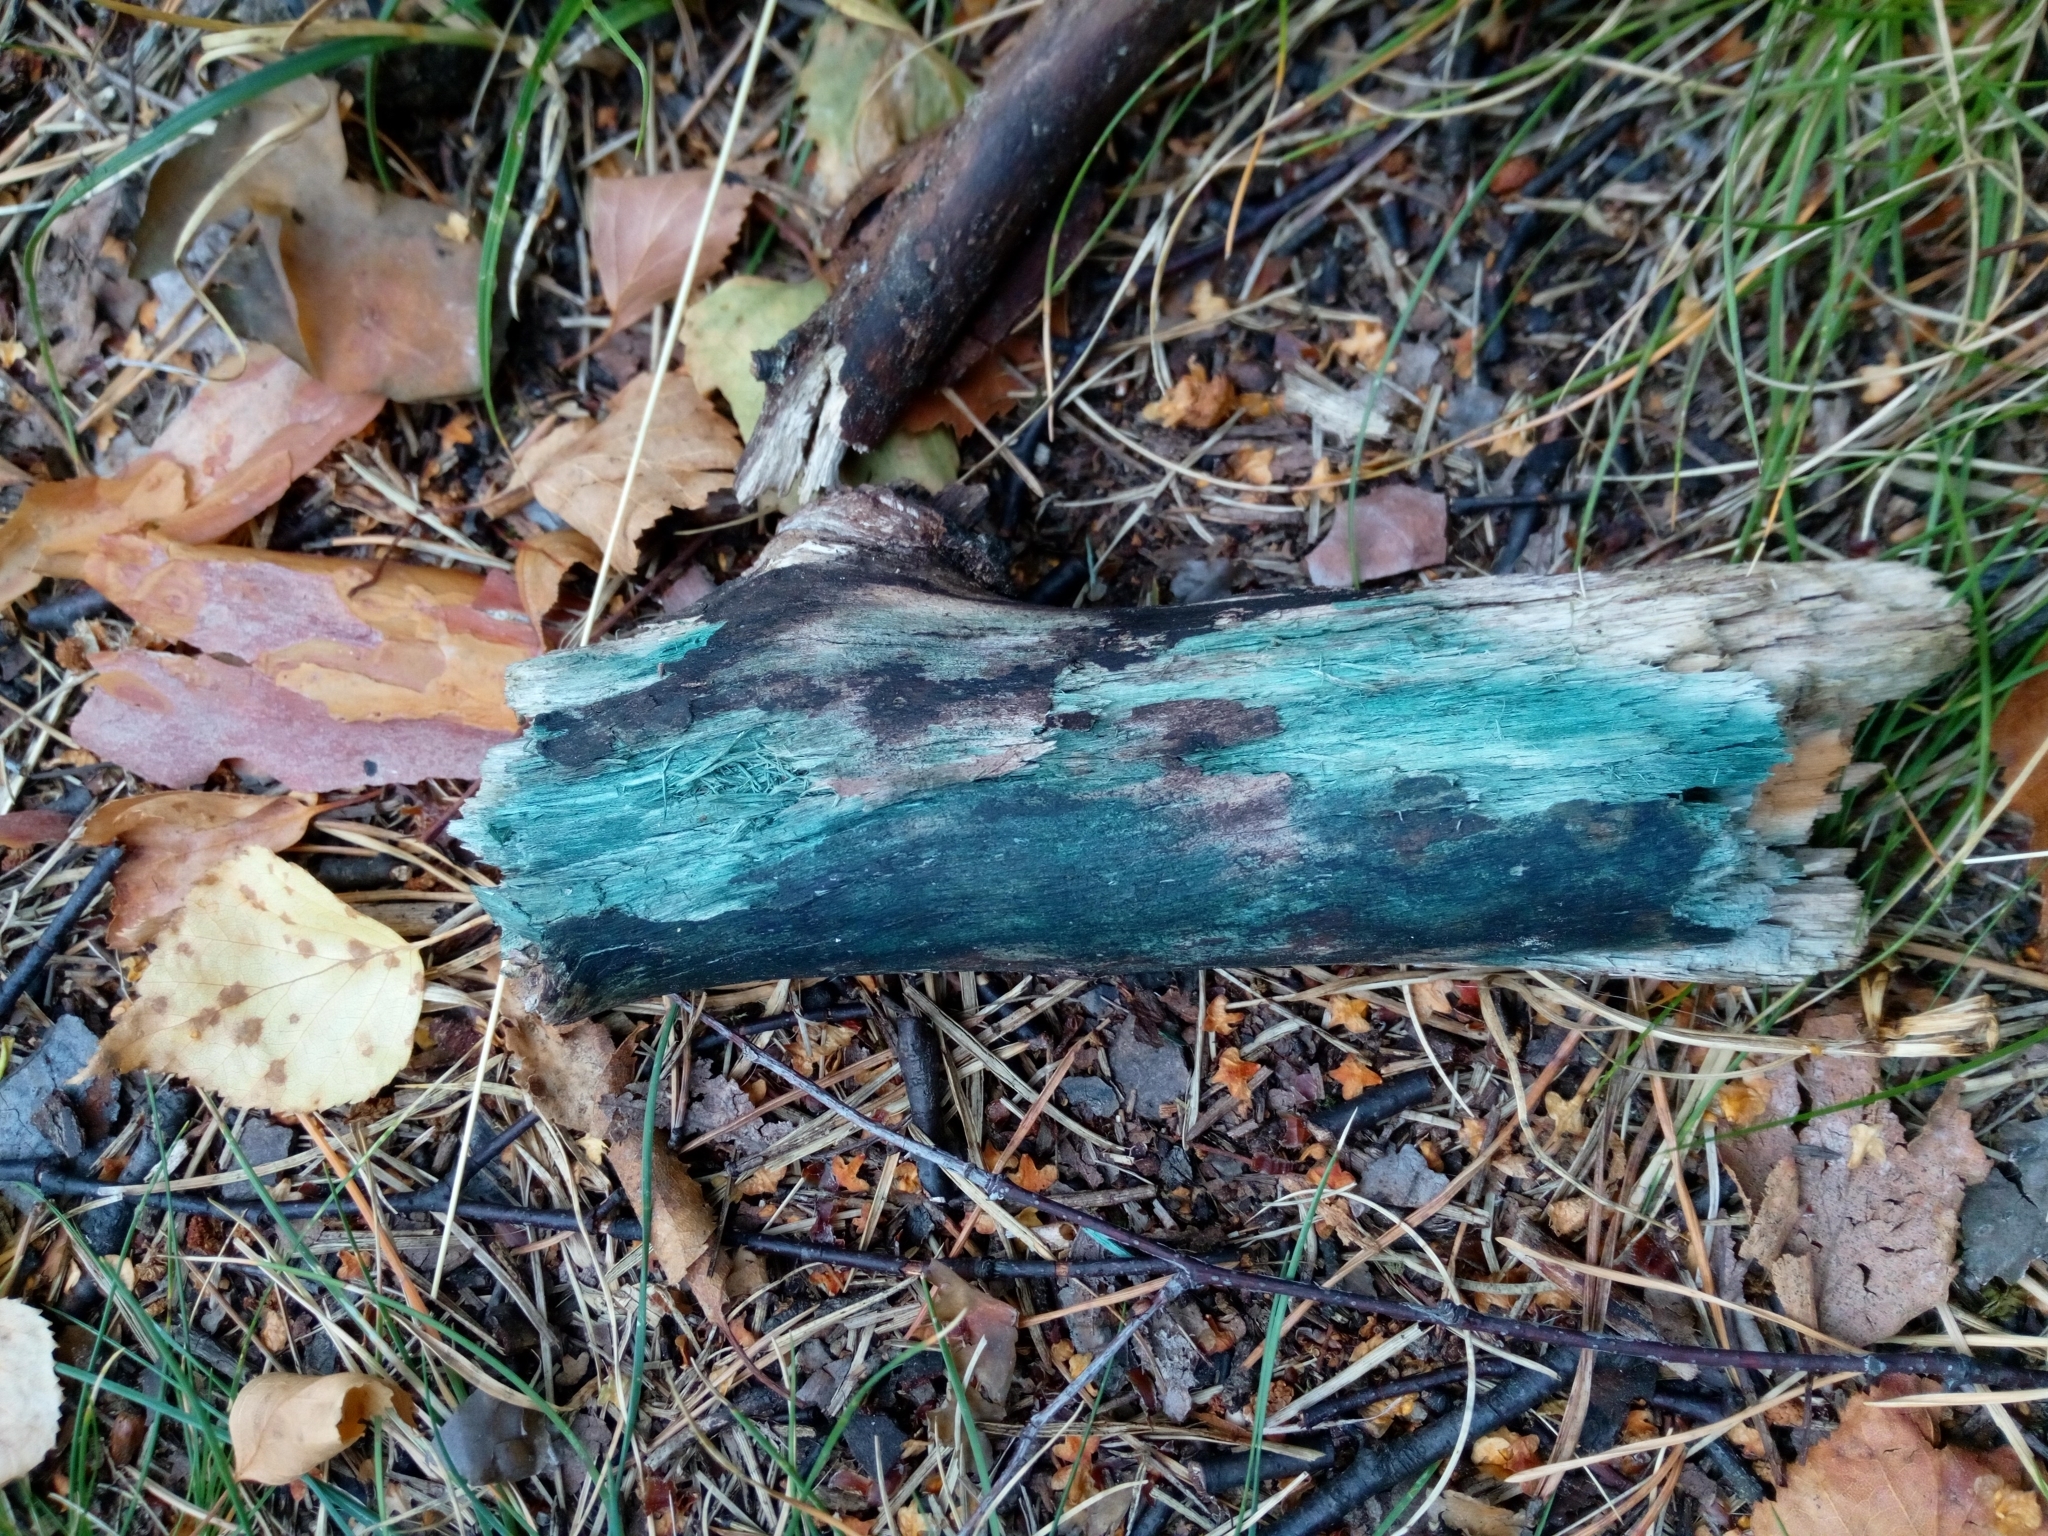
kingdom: Fungi
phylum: Ascomycota
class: Leotiomycetes
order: Helotiales
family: Chlorociboriaceae
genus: Chlorociboria
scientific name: Chlorociboria
